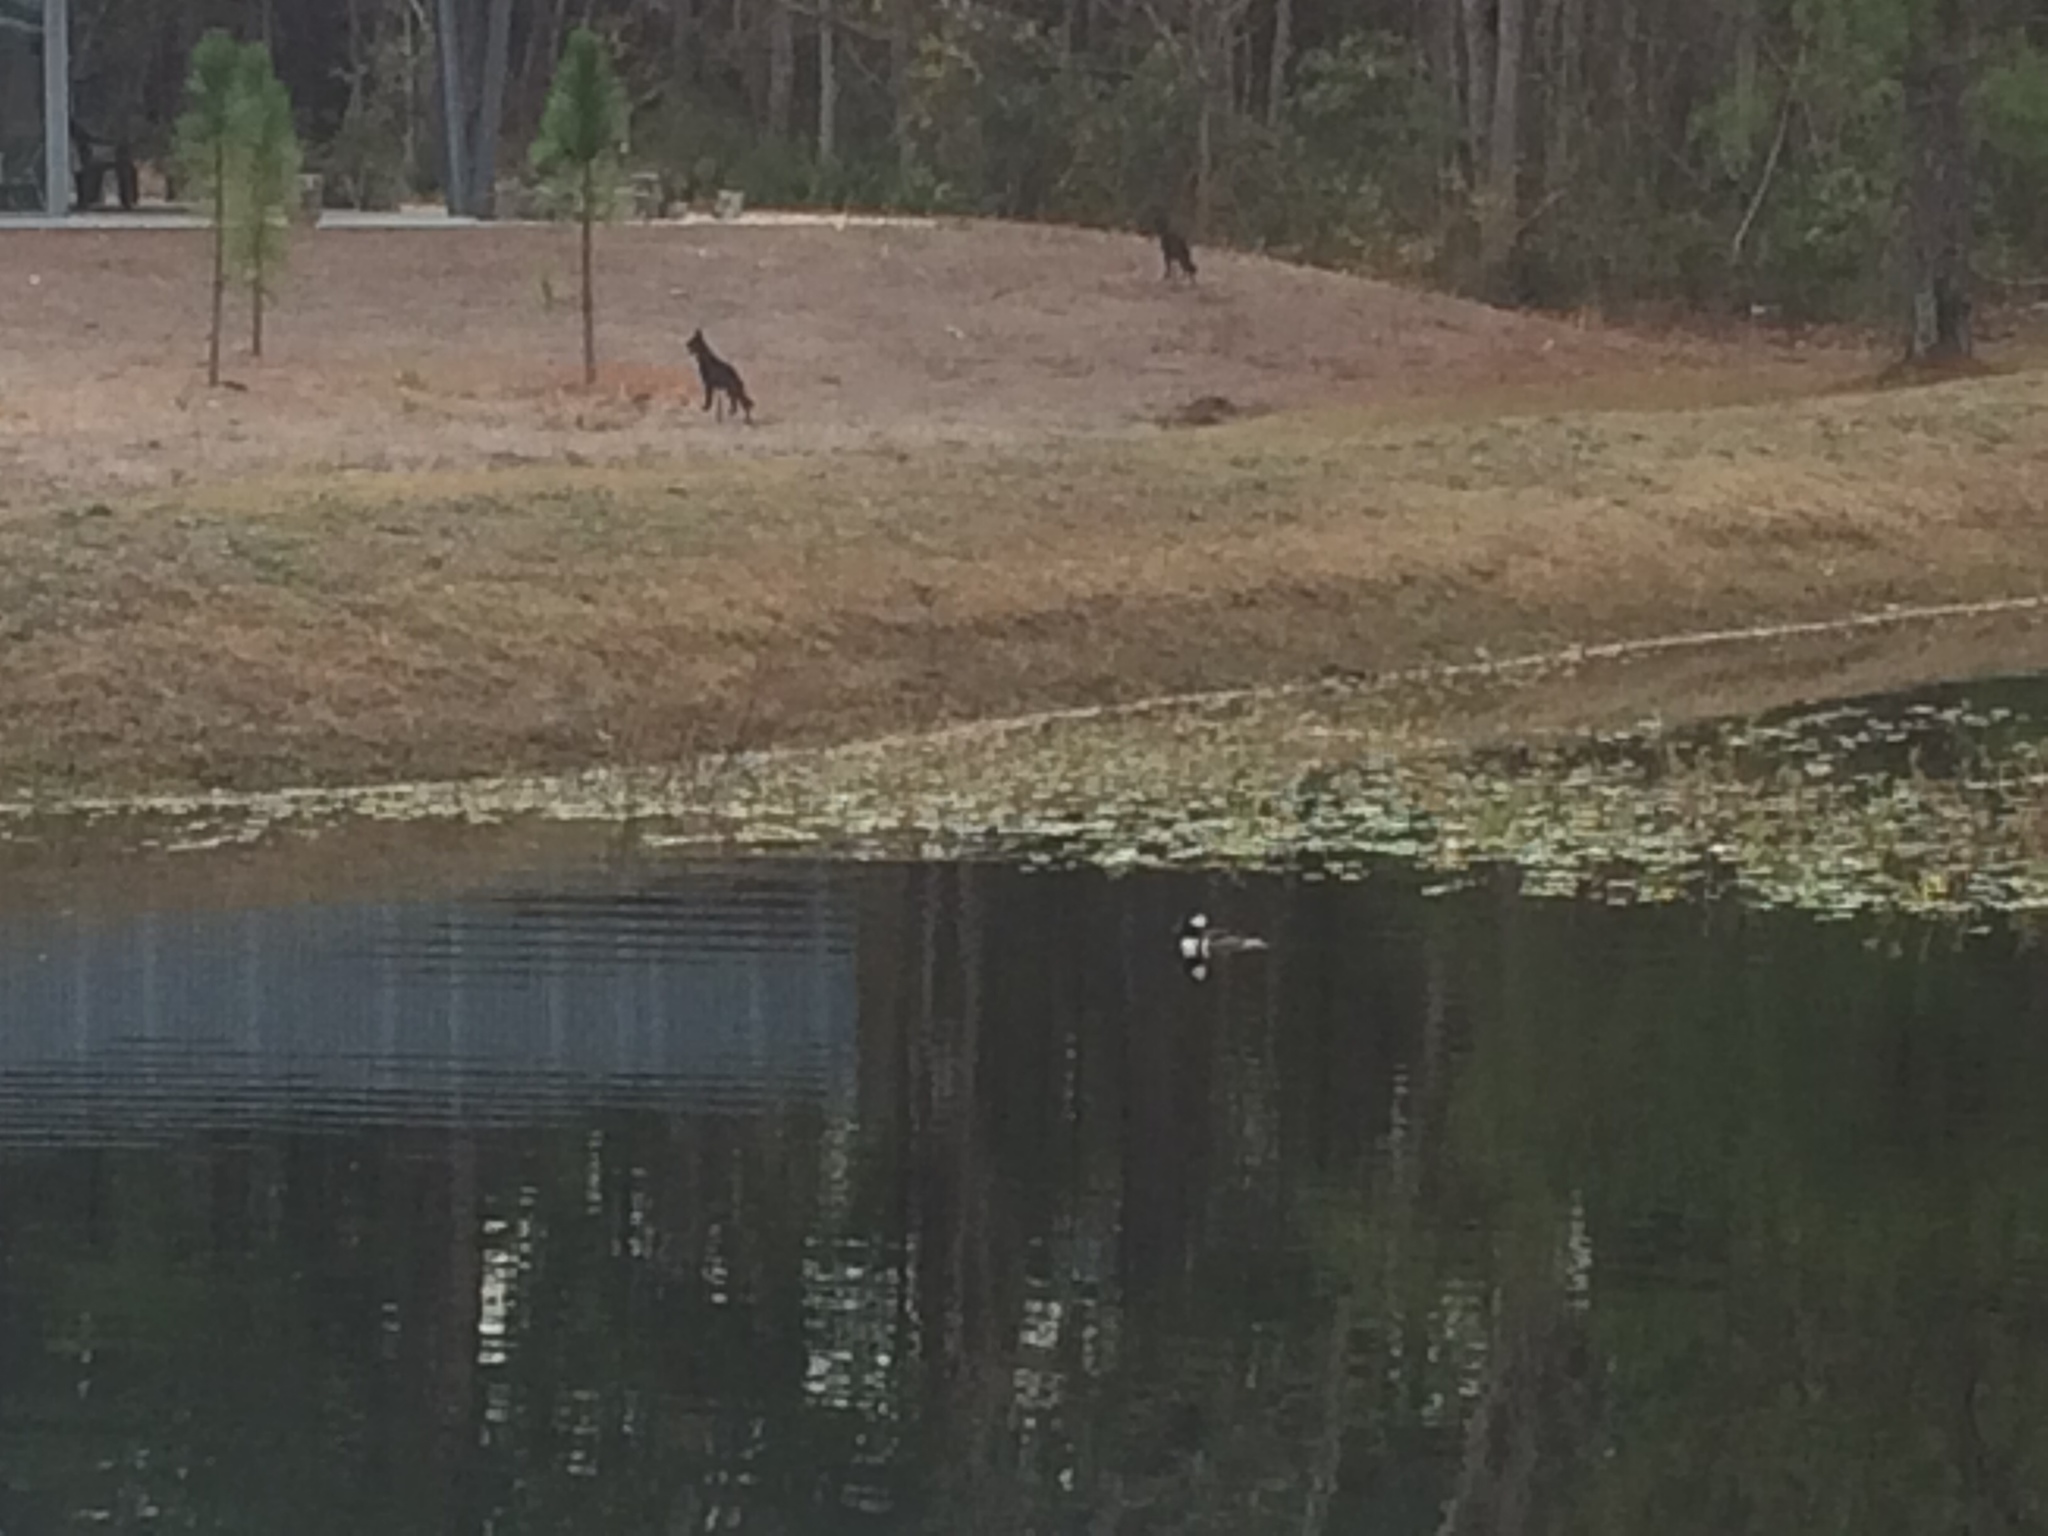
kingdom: Animalia
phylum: Chordata
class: Aves
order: Anseriformes
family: Anatidae
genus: Lophodytes
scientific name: Lophodytes cucullatus
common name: Hooded merganser
